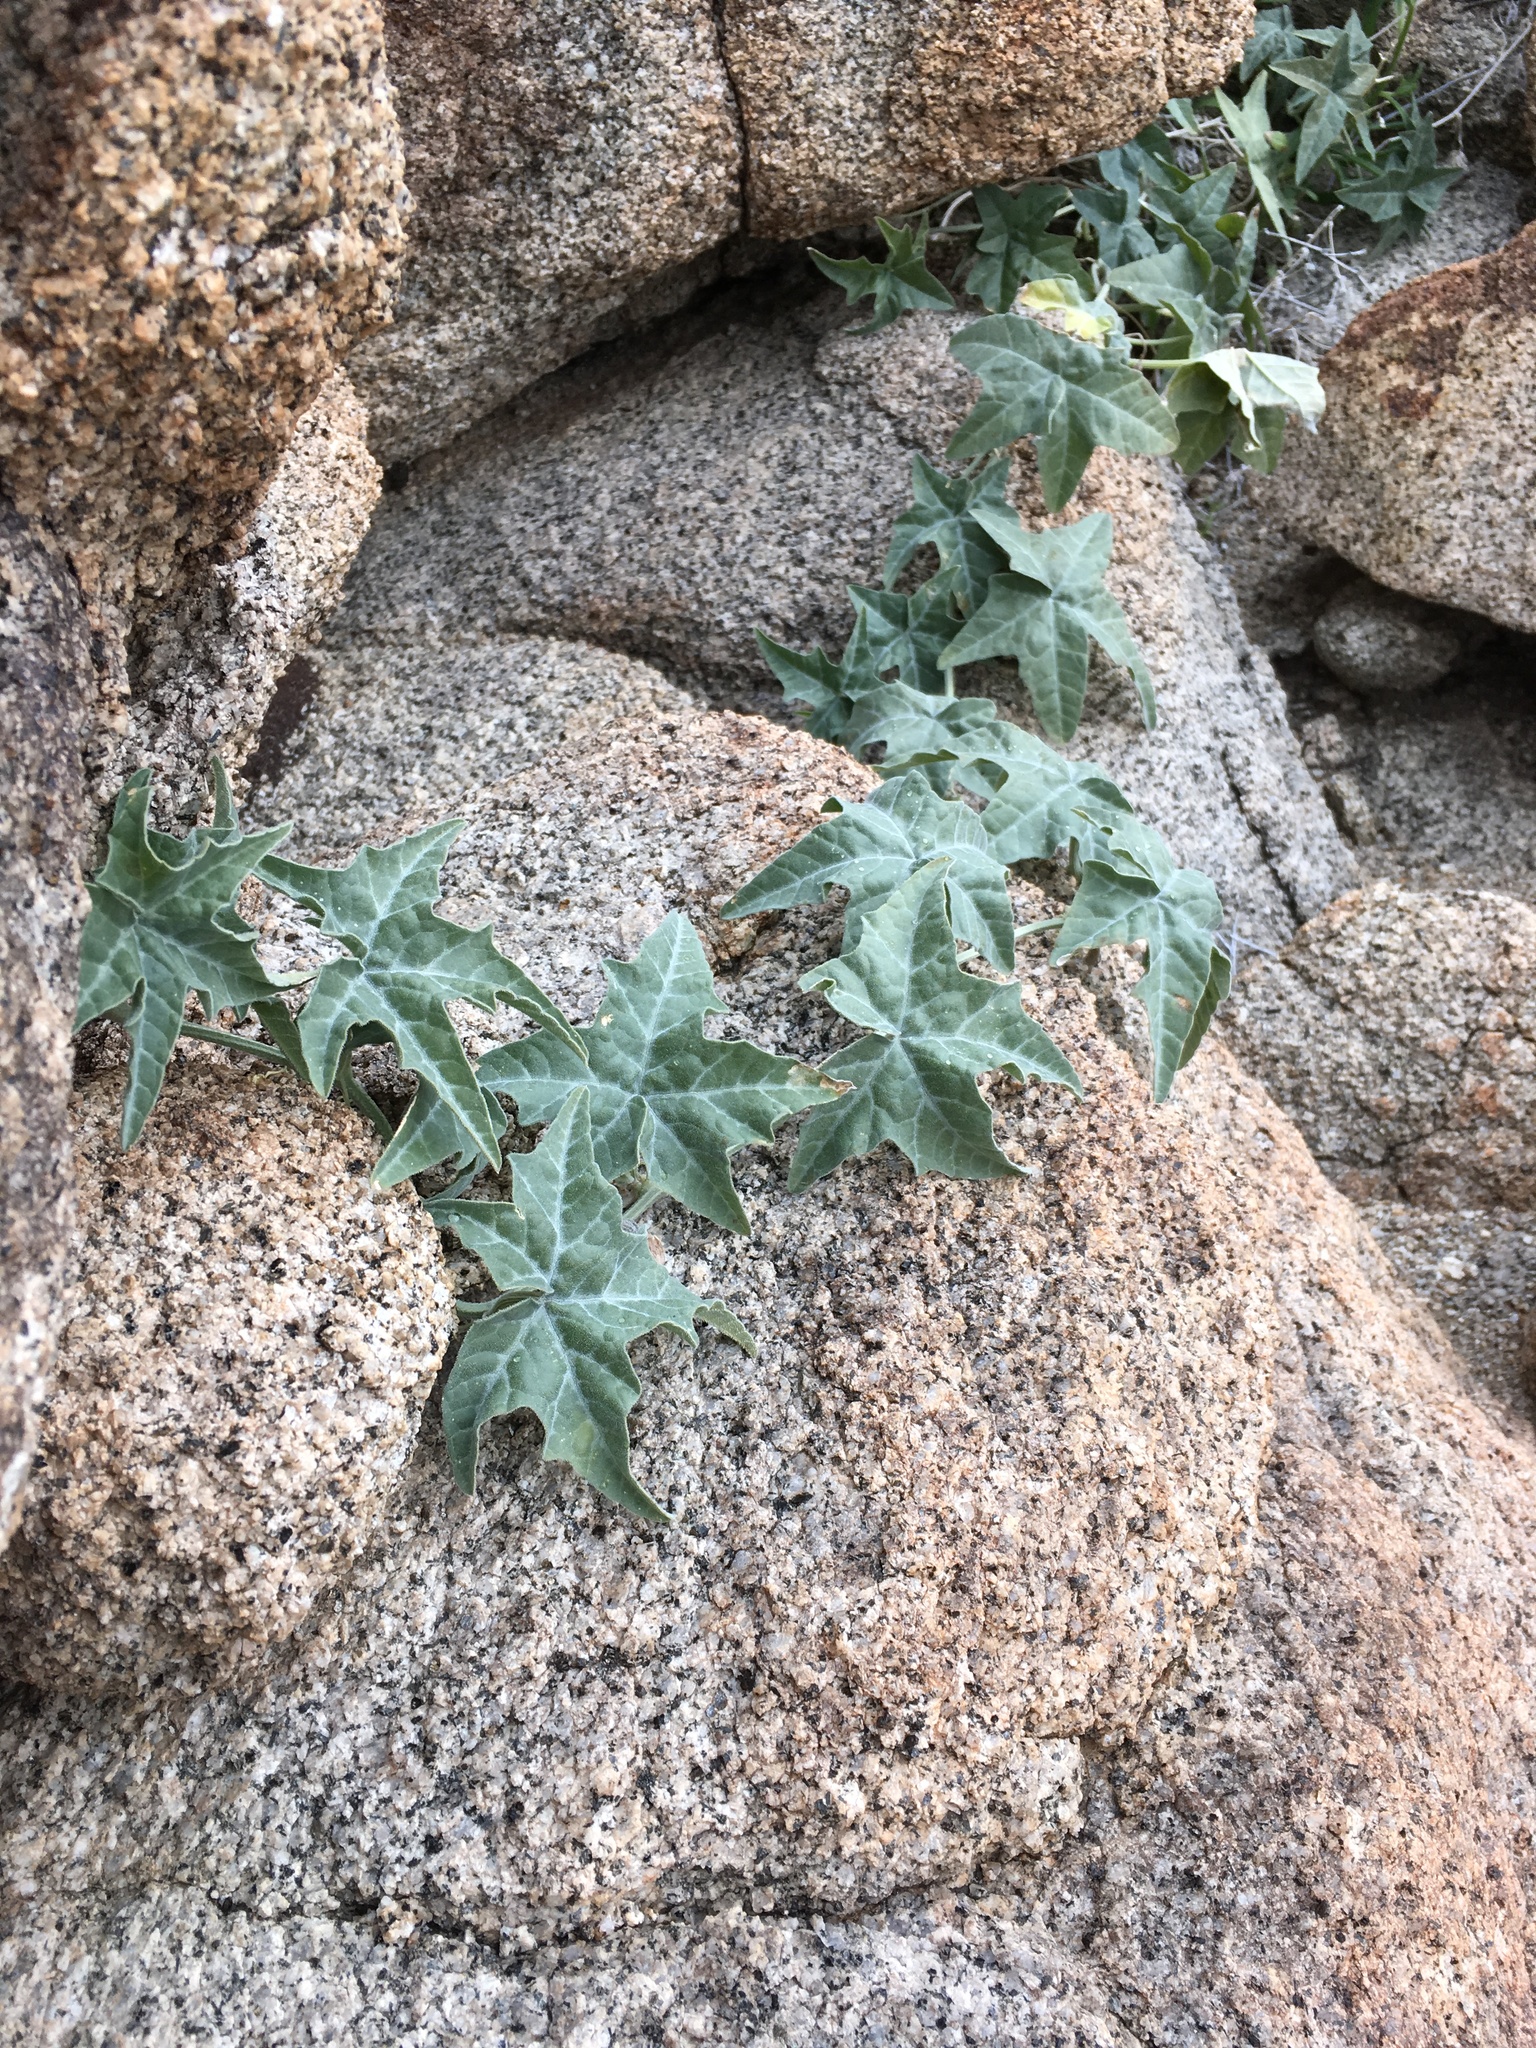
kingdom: Plantae
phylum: Tracheophyta
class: Magnoliopsida
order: Cucurbitales
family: Cucurbitaceae
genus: Cucurbita
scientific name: Cucurbita palmata
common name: Coyote-melon
